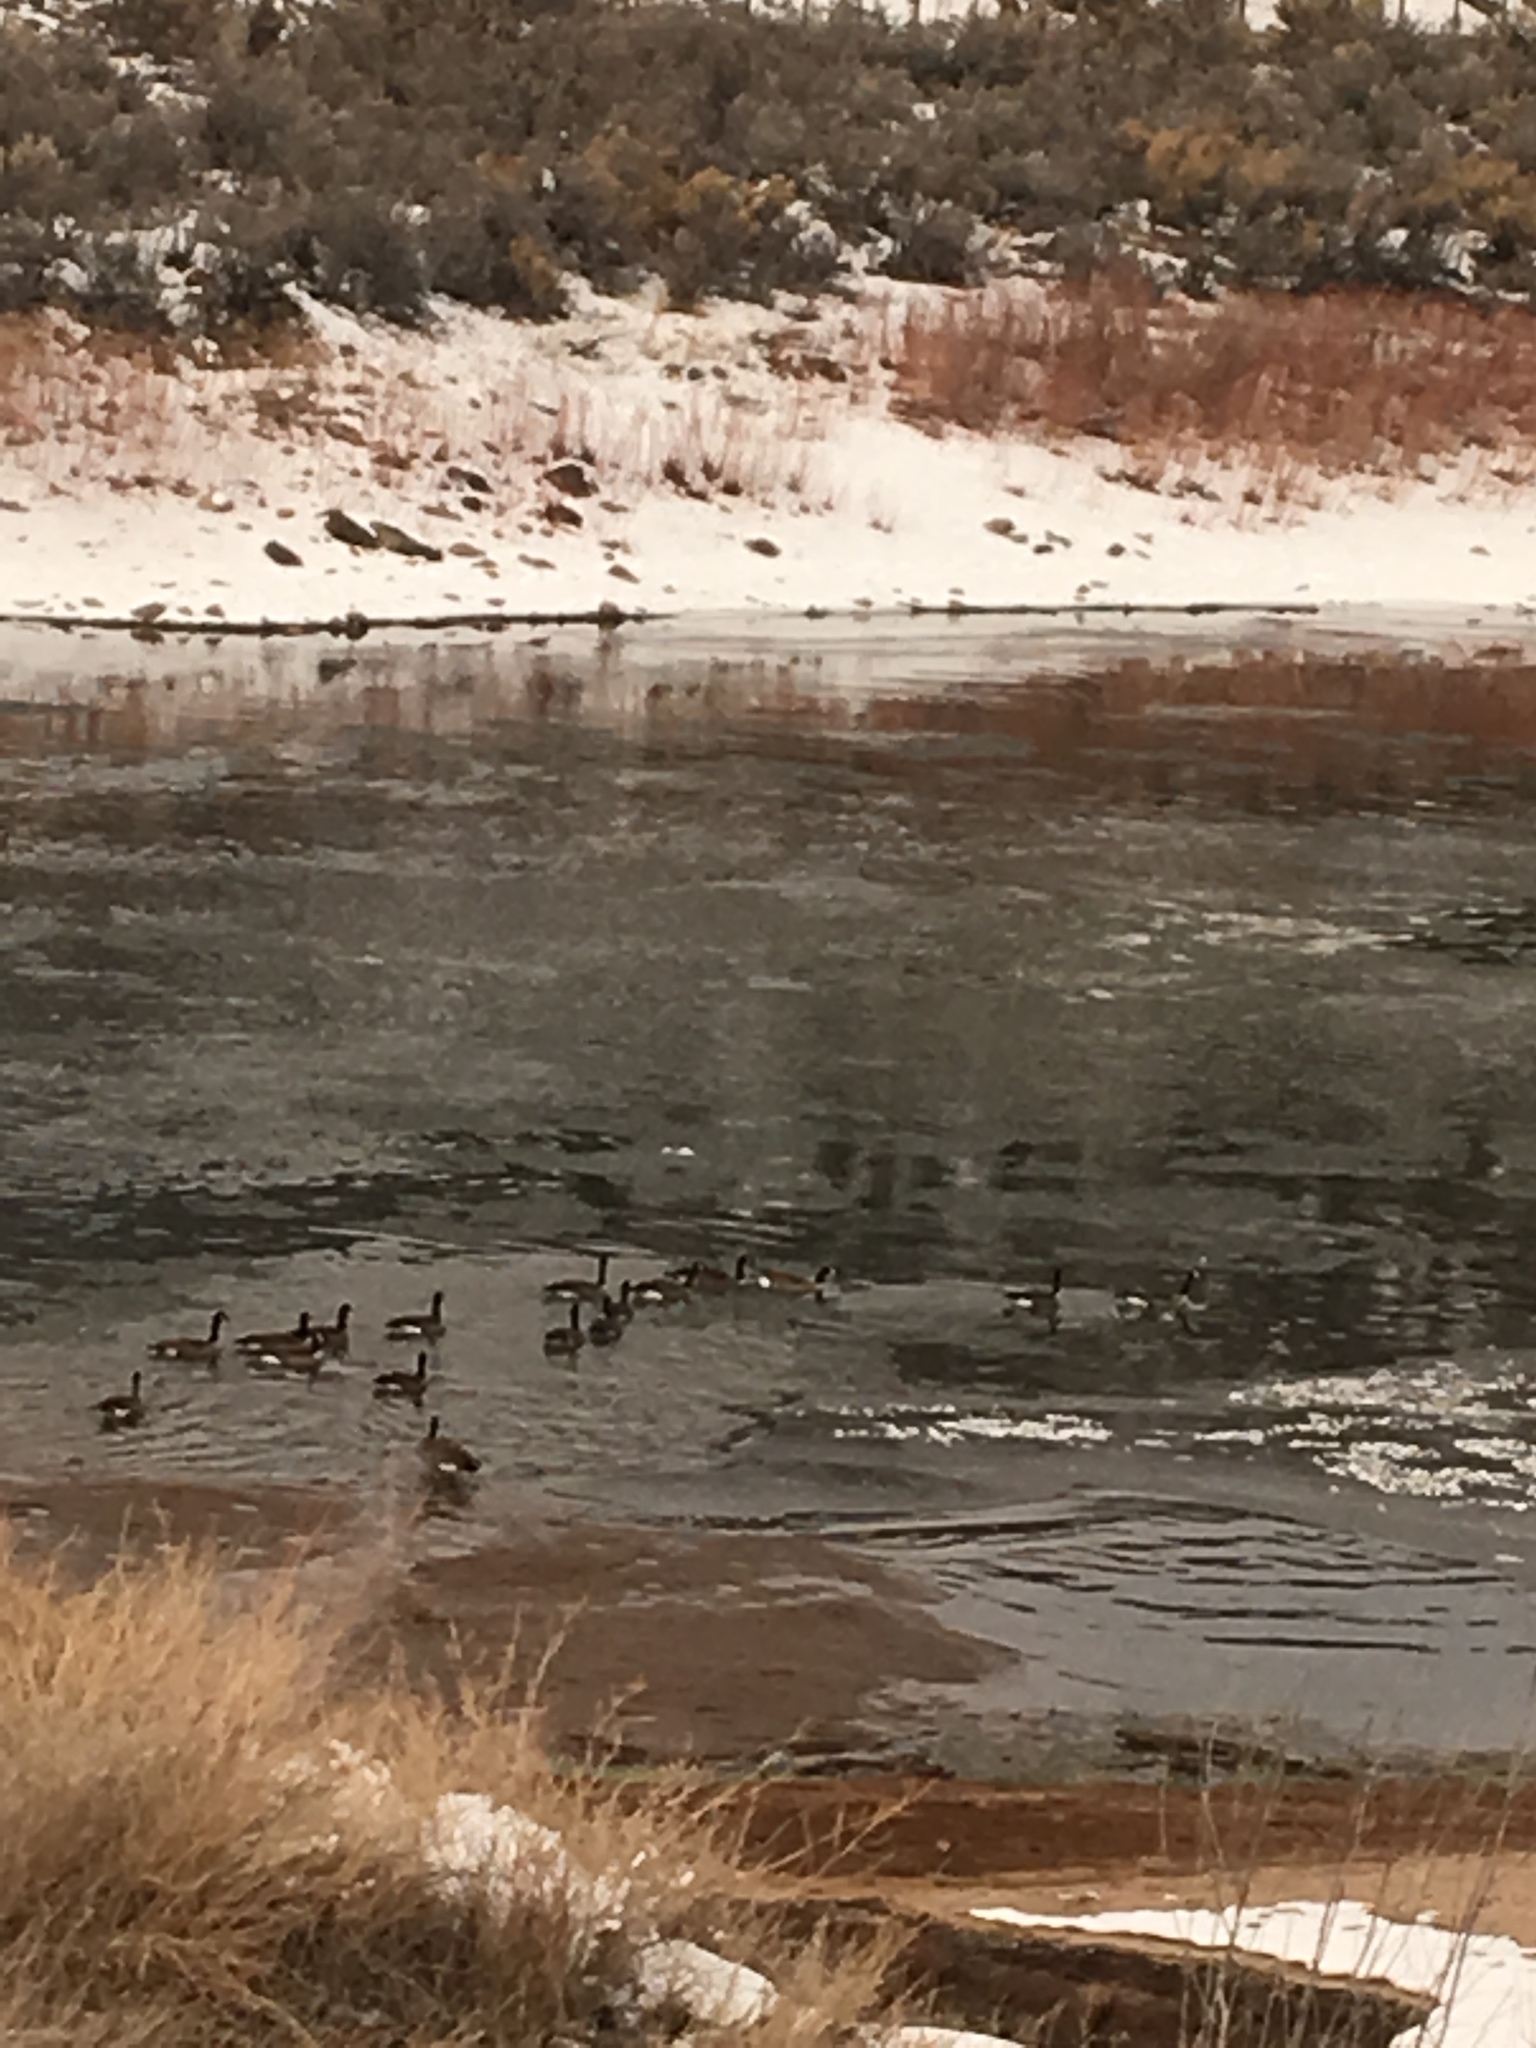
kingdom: Animalia
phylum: Chordata
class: Aves
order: Anseriformes
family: Anatidae
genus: Branta
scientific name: Branta canadensis
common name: Canada goose
